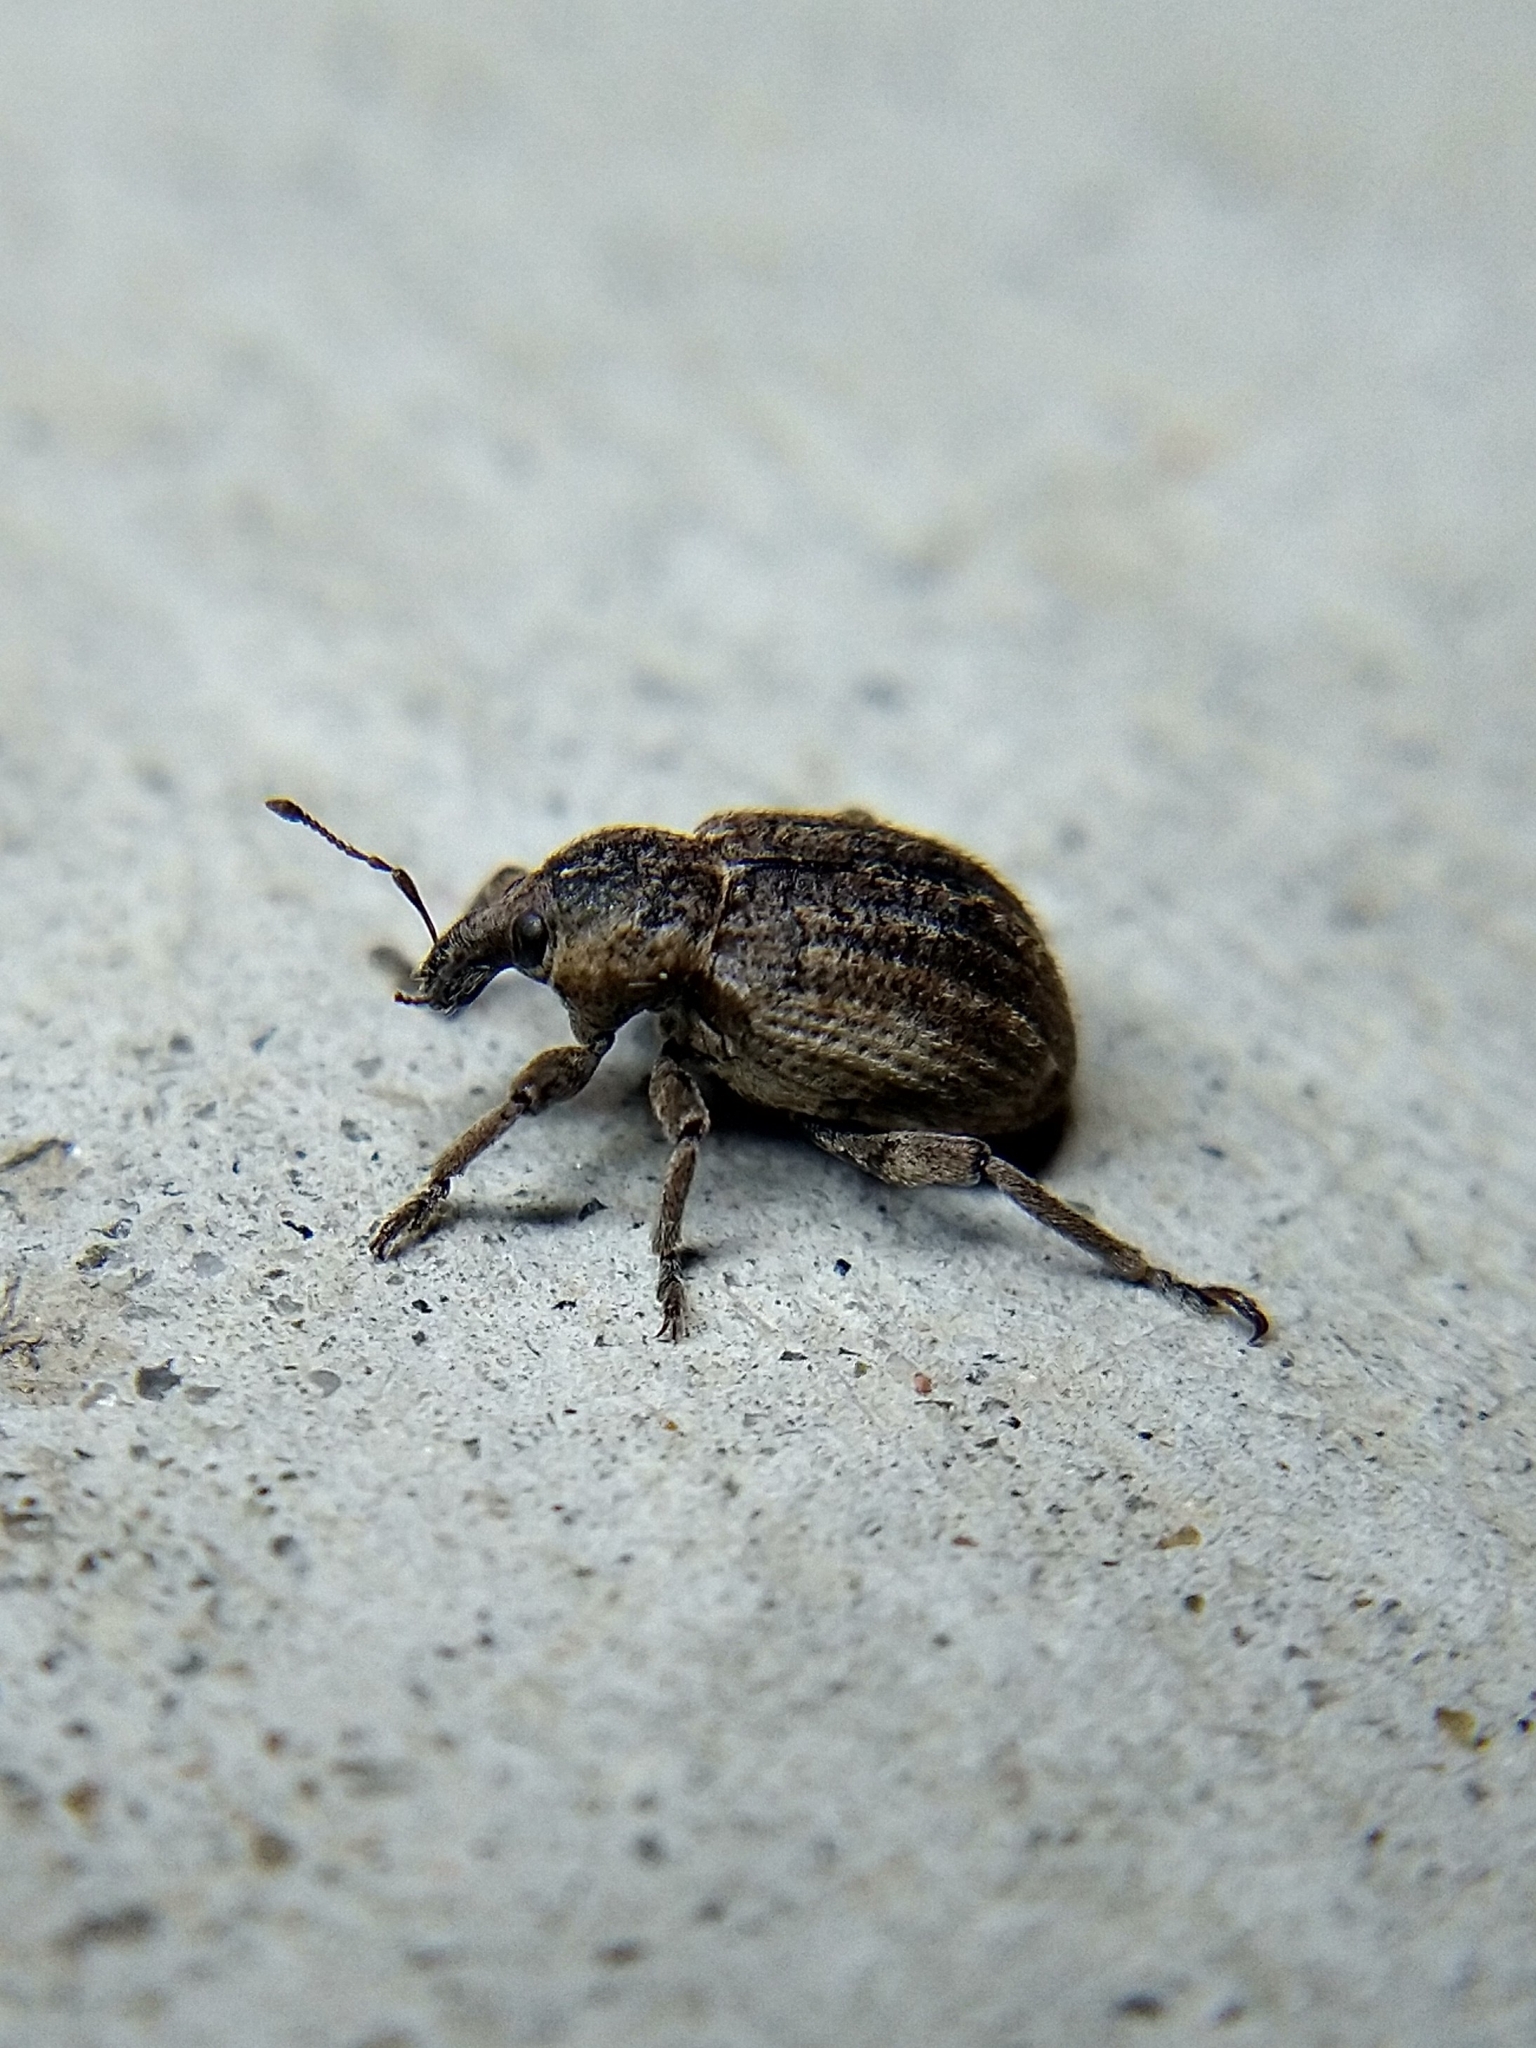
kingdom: Animalia
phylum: Arthropoda
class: Insecta
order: Coleoptera
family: Curculionidae
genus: Brachypera
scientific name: Brachypera zoilus
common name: Clover leaf weevil
